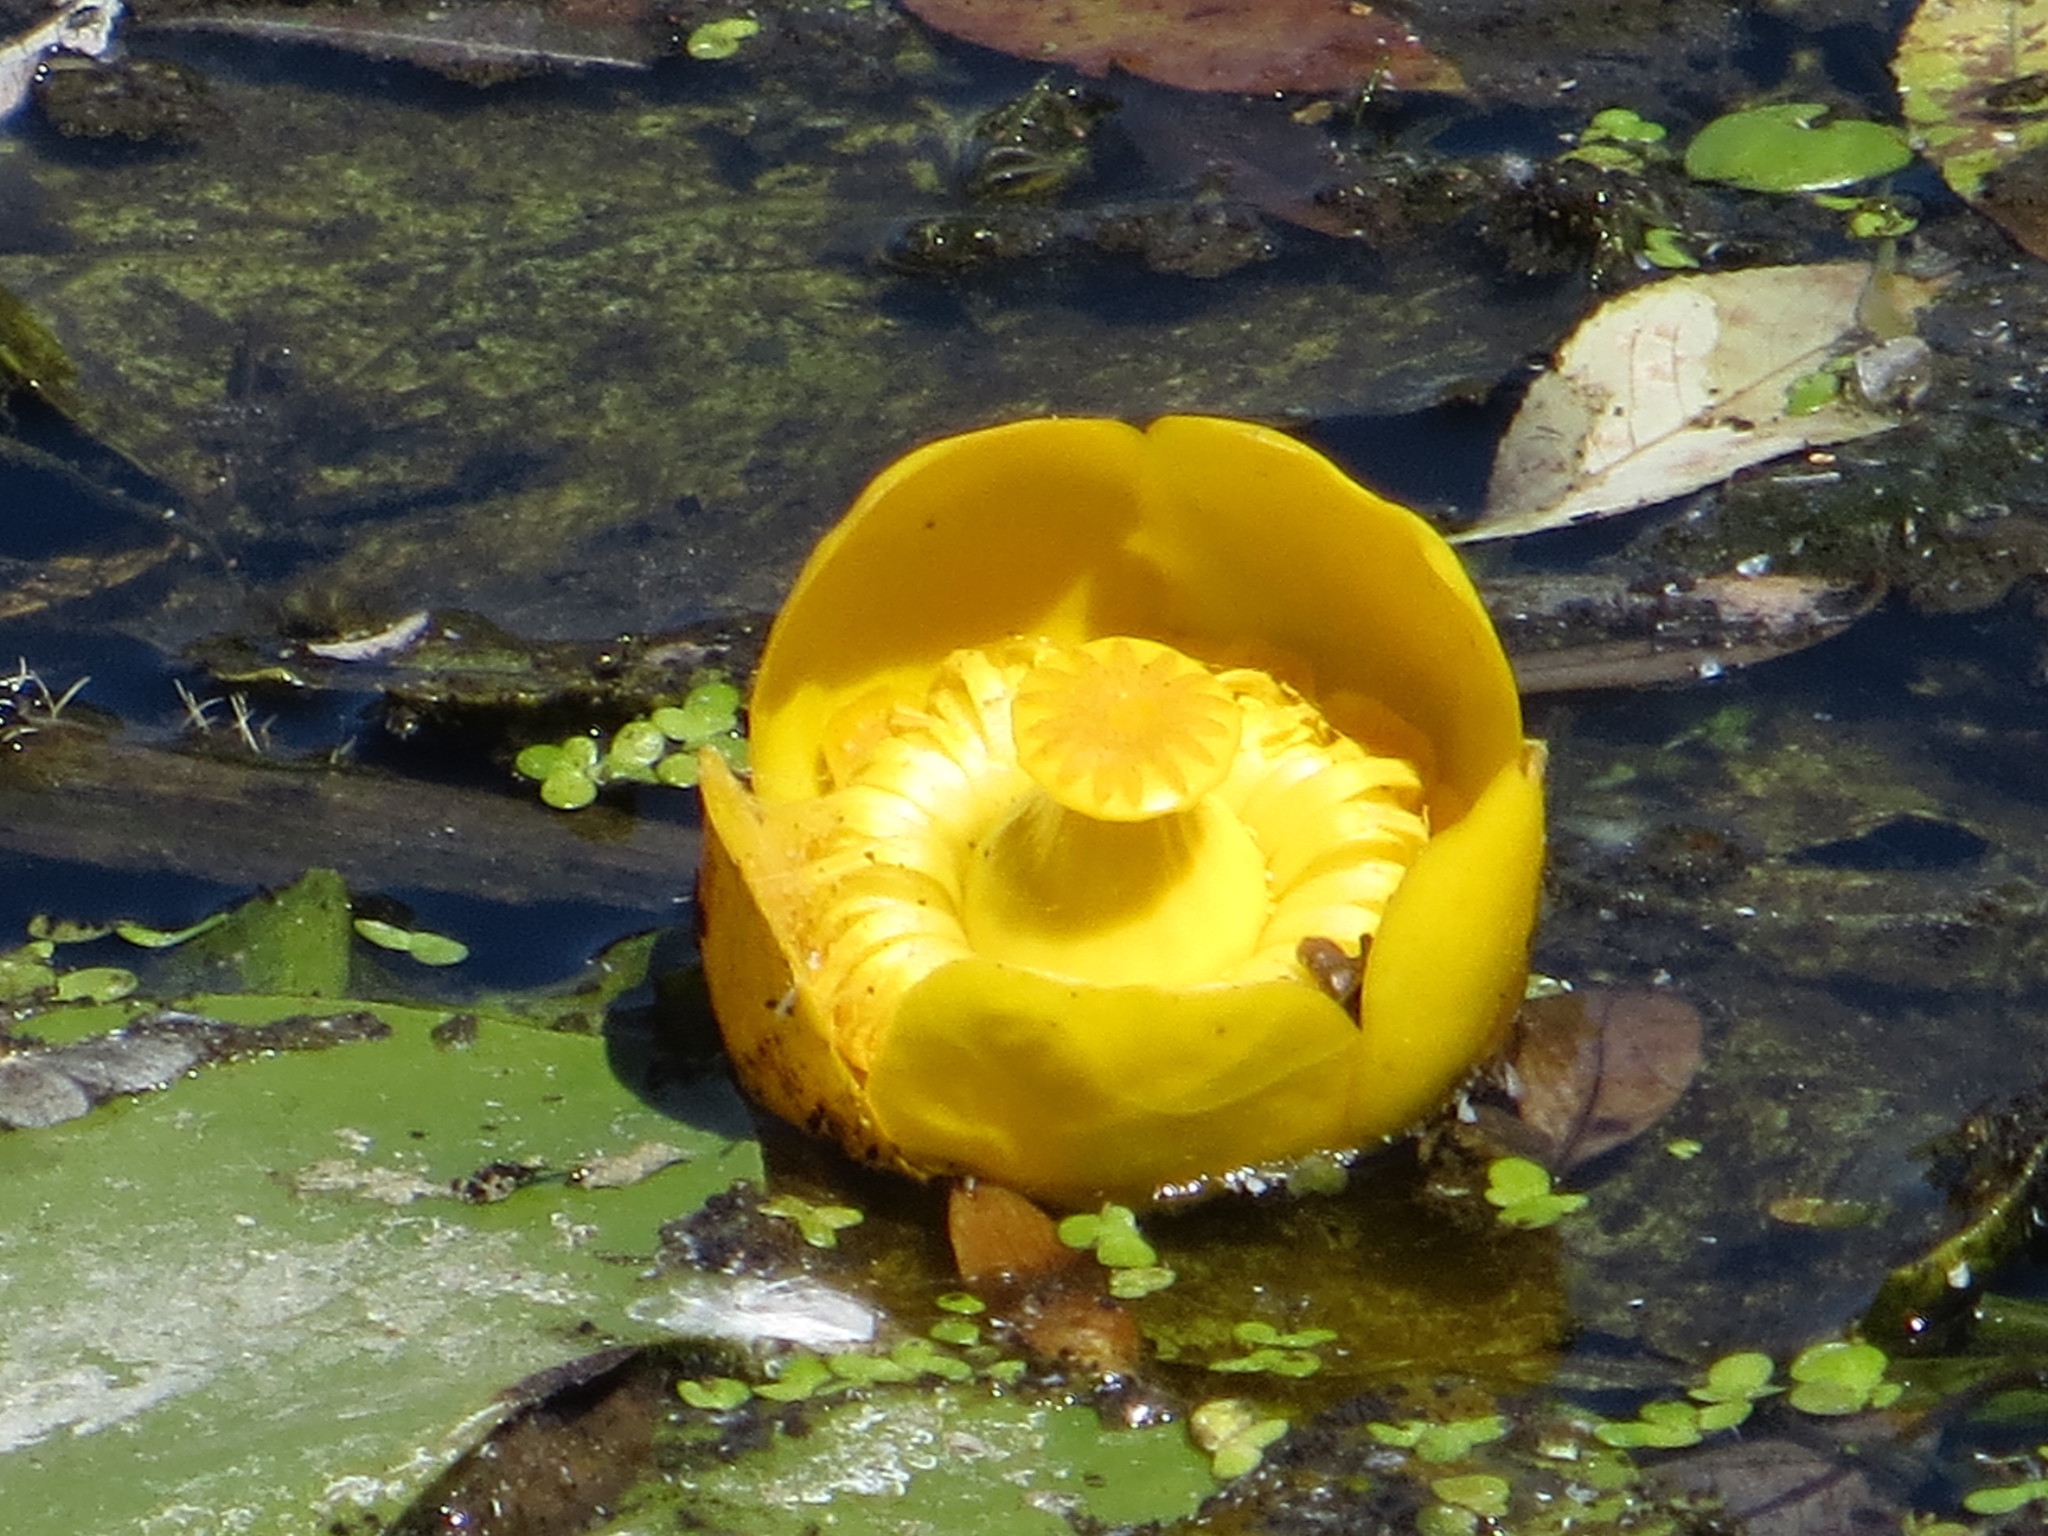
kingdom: Plantae
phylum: Tracheophyta
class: Magnoliopsida
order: Nymphaeales
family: Nymphaeaceae
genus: Nuphar
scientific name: Nuphar lutea
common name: Yellow water-lily
